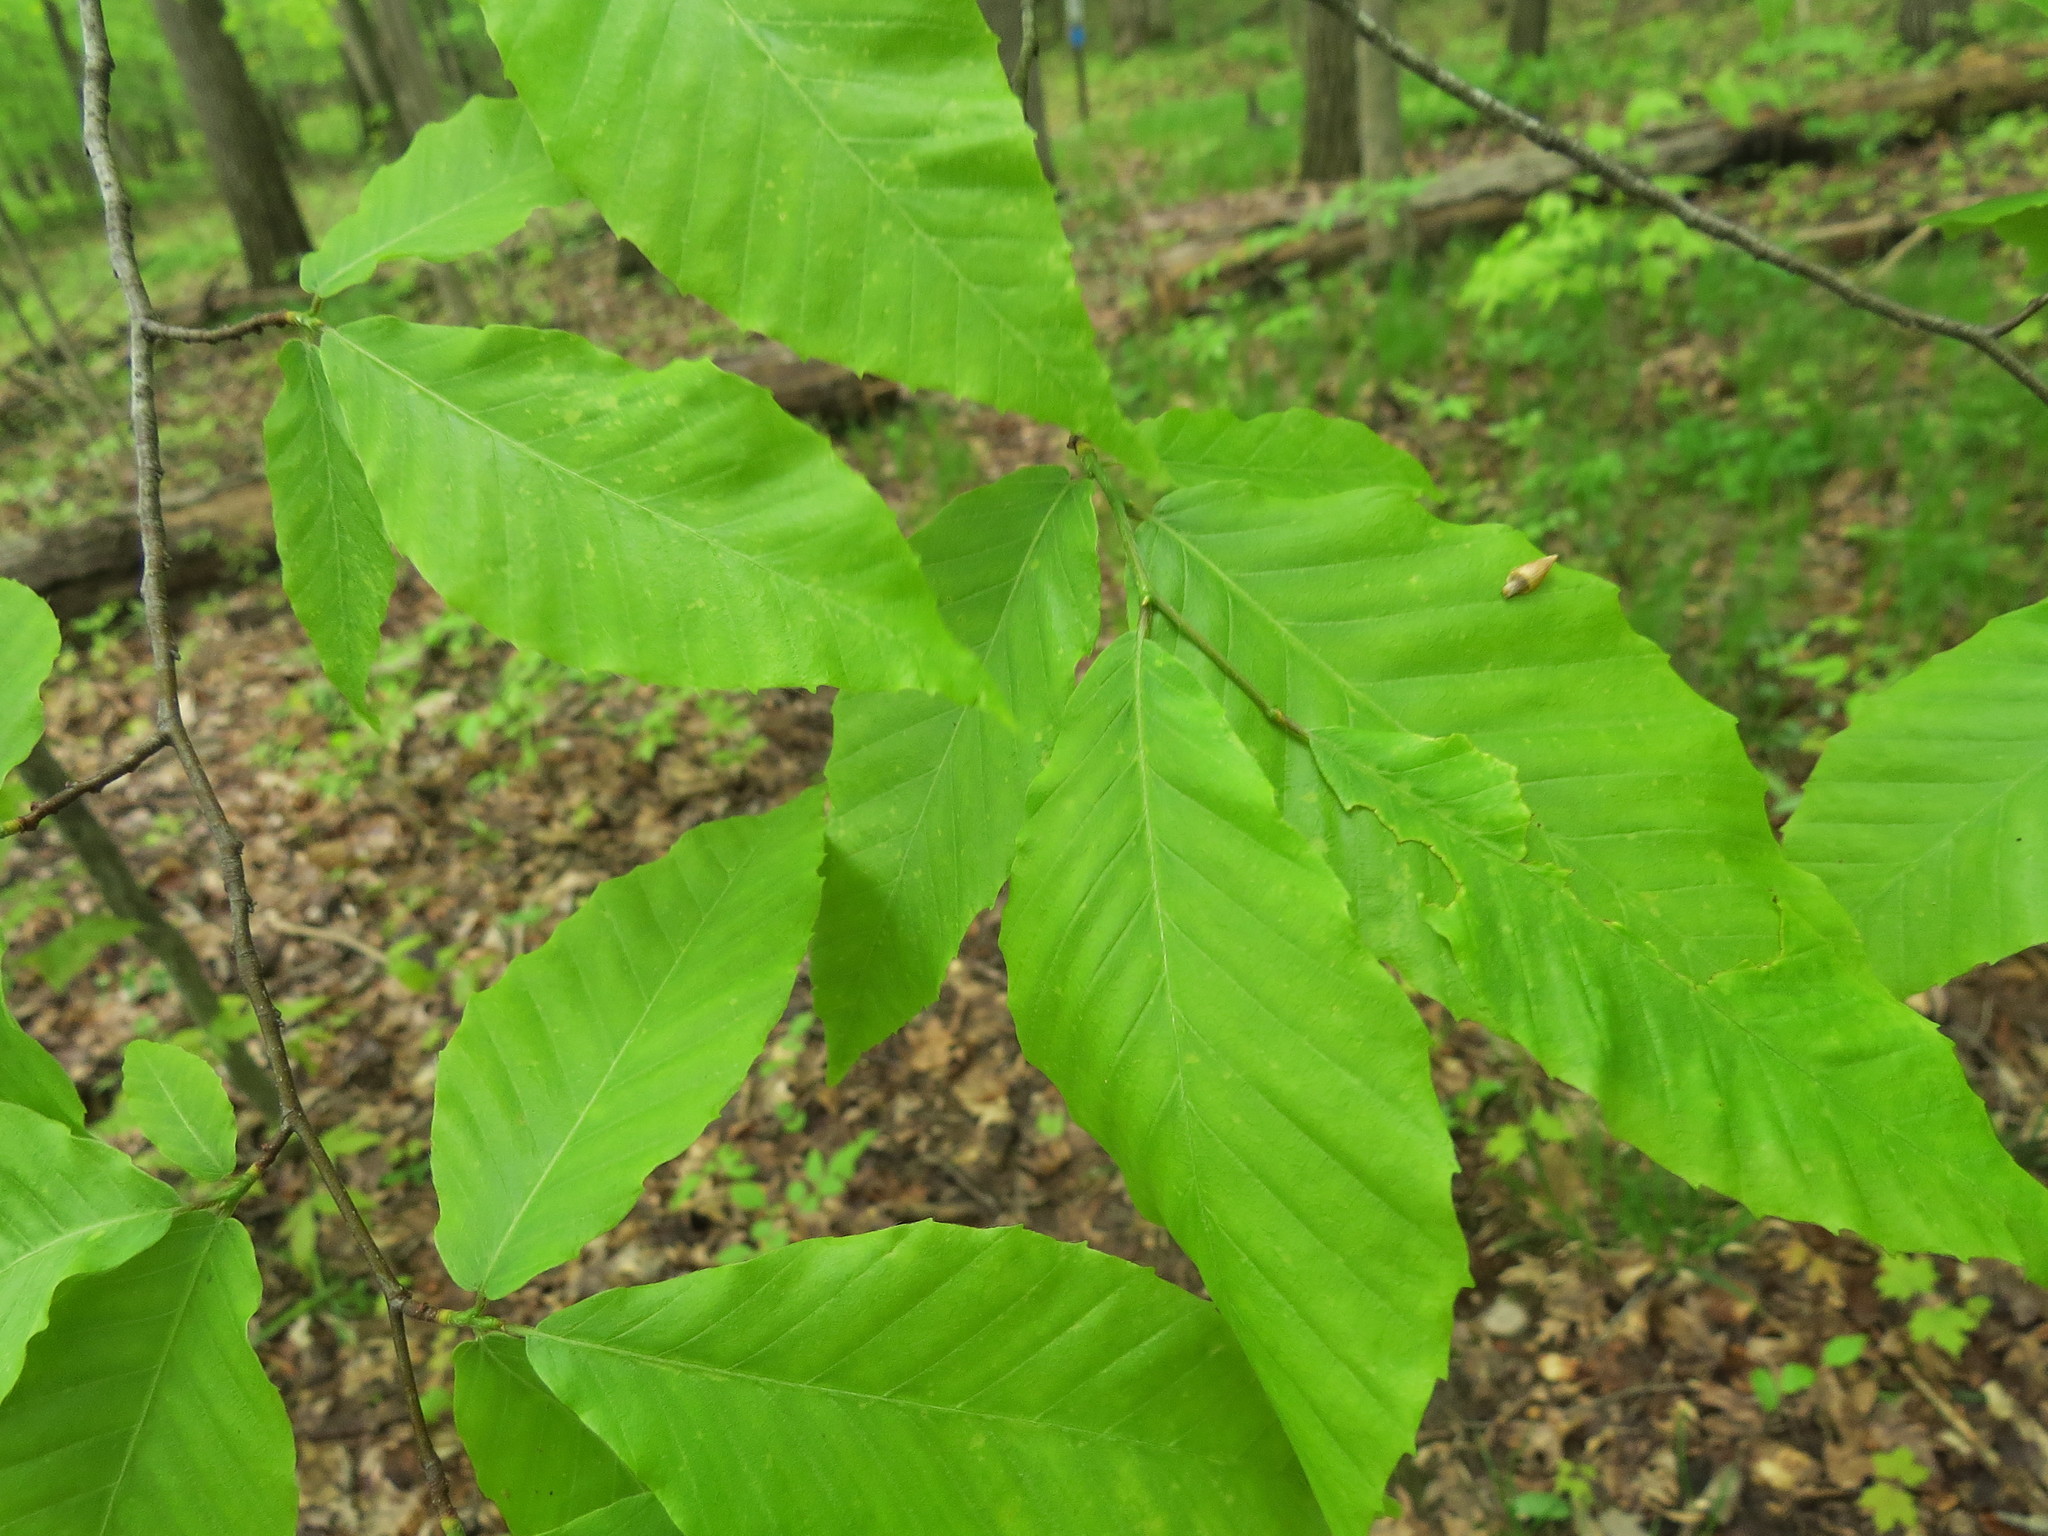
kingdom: Plantae
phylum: Tracheophyta
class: Magnoliopsida
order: Fagales
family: Fagaceae
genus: Fagus
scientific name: Fagus grandifolia
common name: American beech
